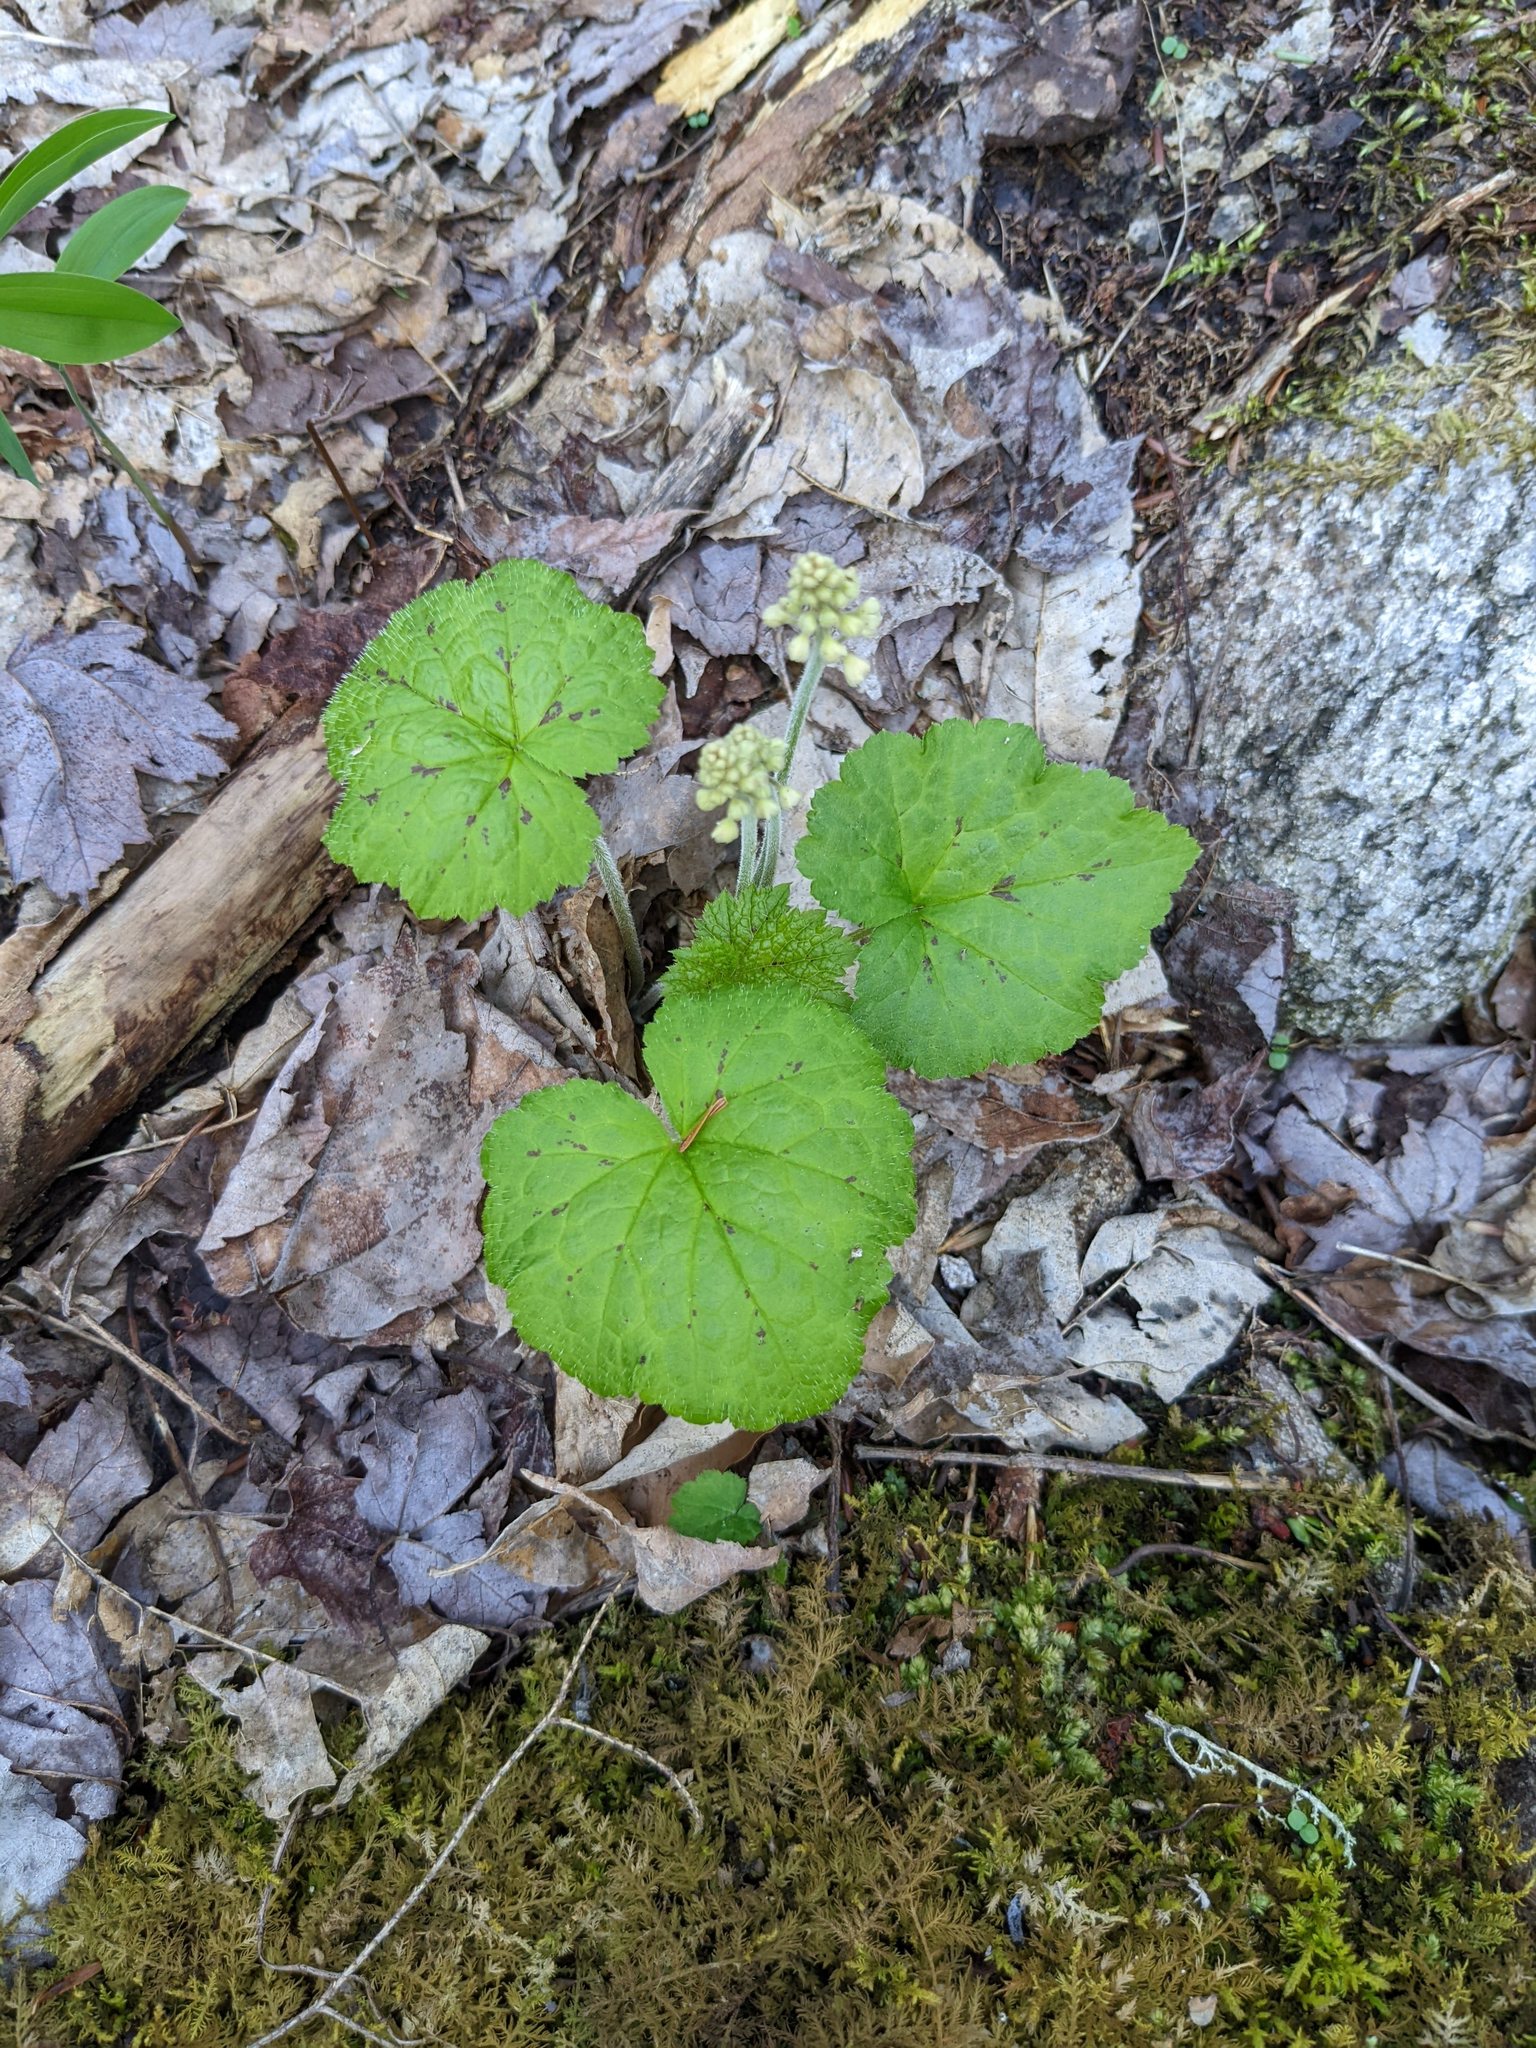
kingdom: Plantae
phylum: Tracheophyta
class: Magnoliopsida
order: Saxifragales
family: Saxifragaceae
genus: Tiarella
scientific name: Tiarella stolonifera
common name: Stoloniferous foamflower
